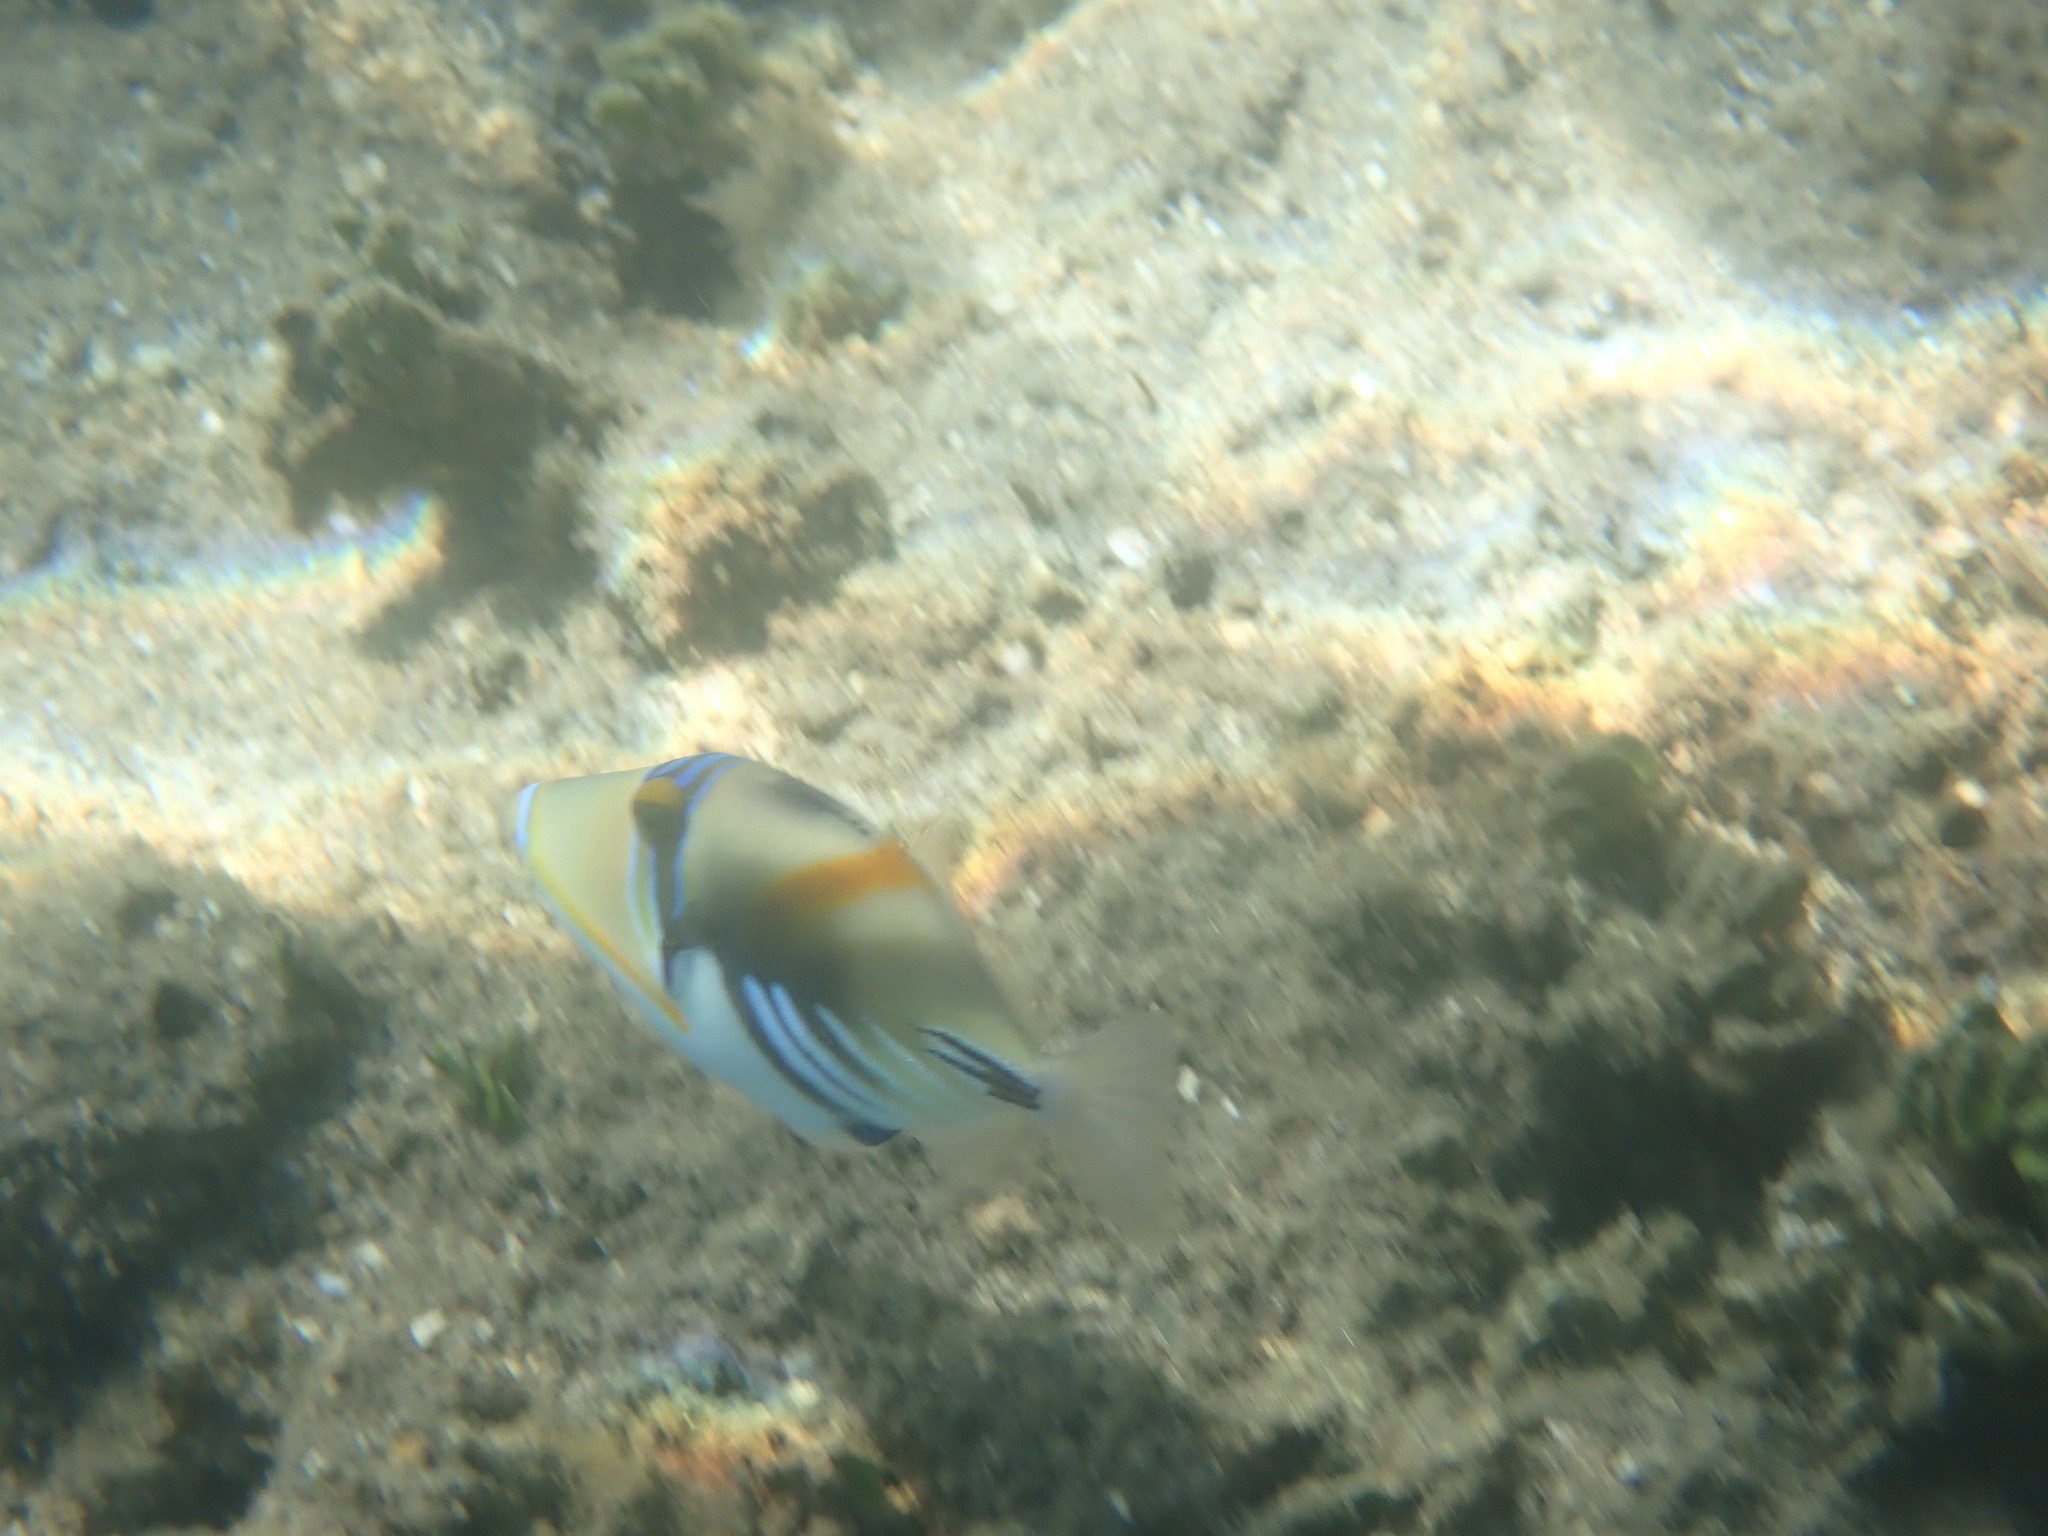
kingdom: Animalia
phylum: Chordata
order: Tetraodontiformes
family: Balistidae
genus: Rhinecanthus
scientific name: Rhinecanthus aculeatus
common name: White-banded triggerfish
